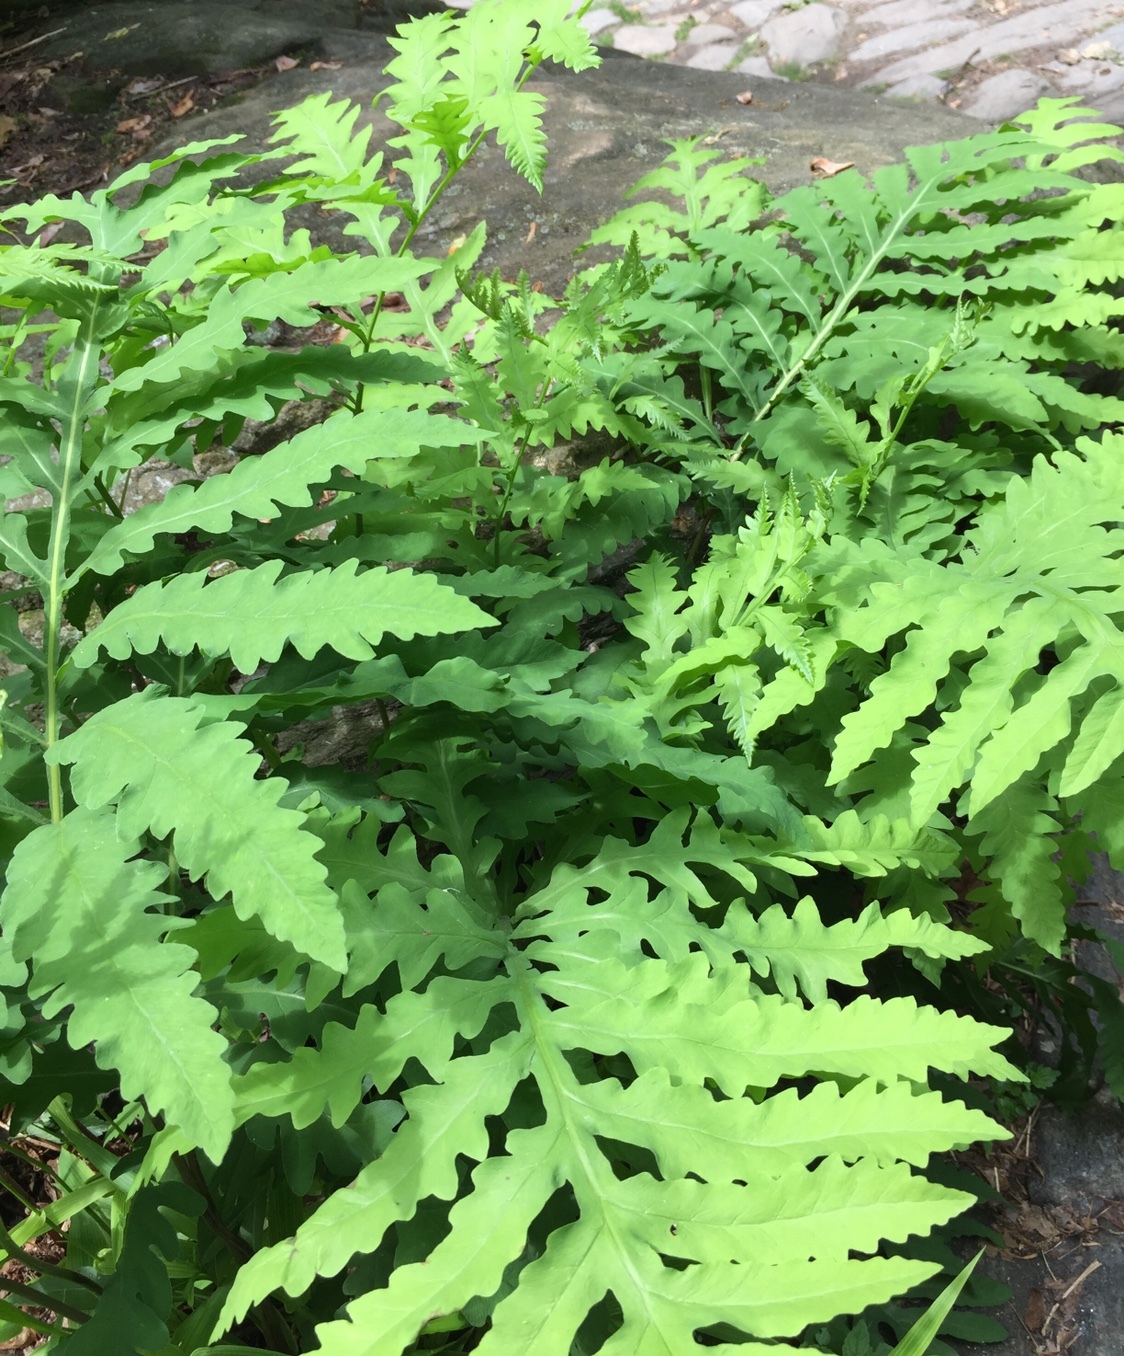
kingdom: Plantae
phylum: Tracheophyta
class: Polypodiopsida
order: Polypodiales
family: Onocleaceae
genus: Onoclea
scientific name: Onoclea sensibilis
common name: Sensitive fern
